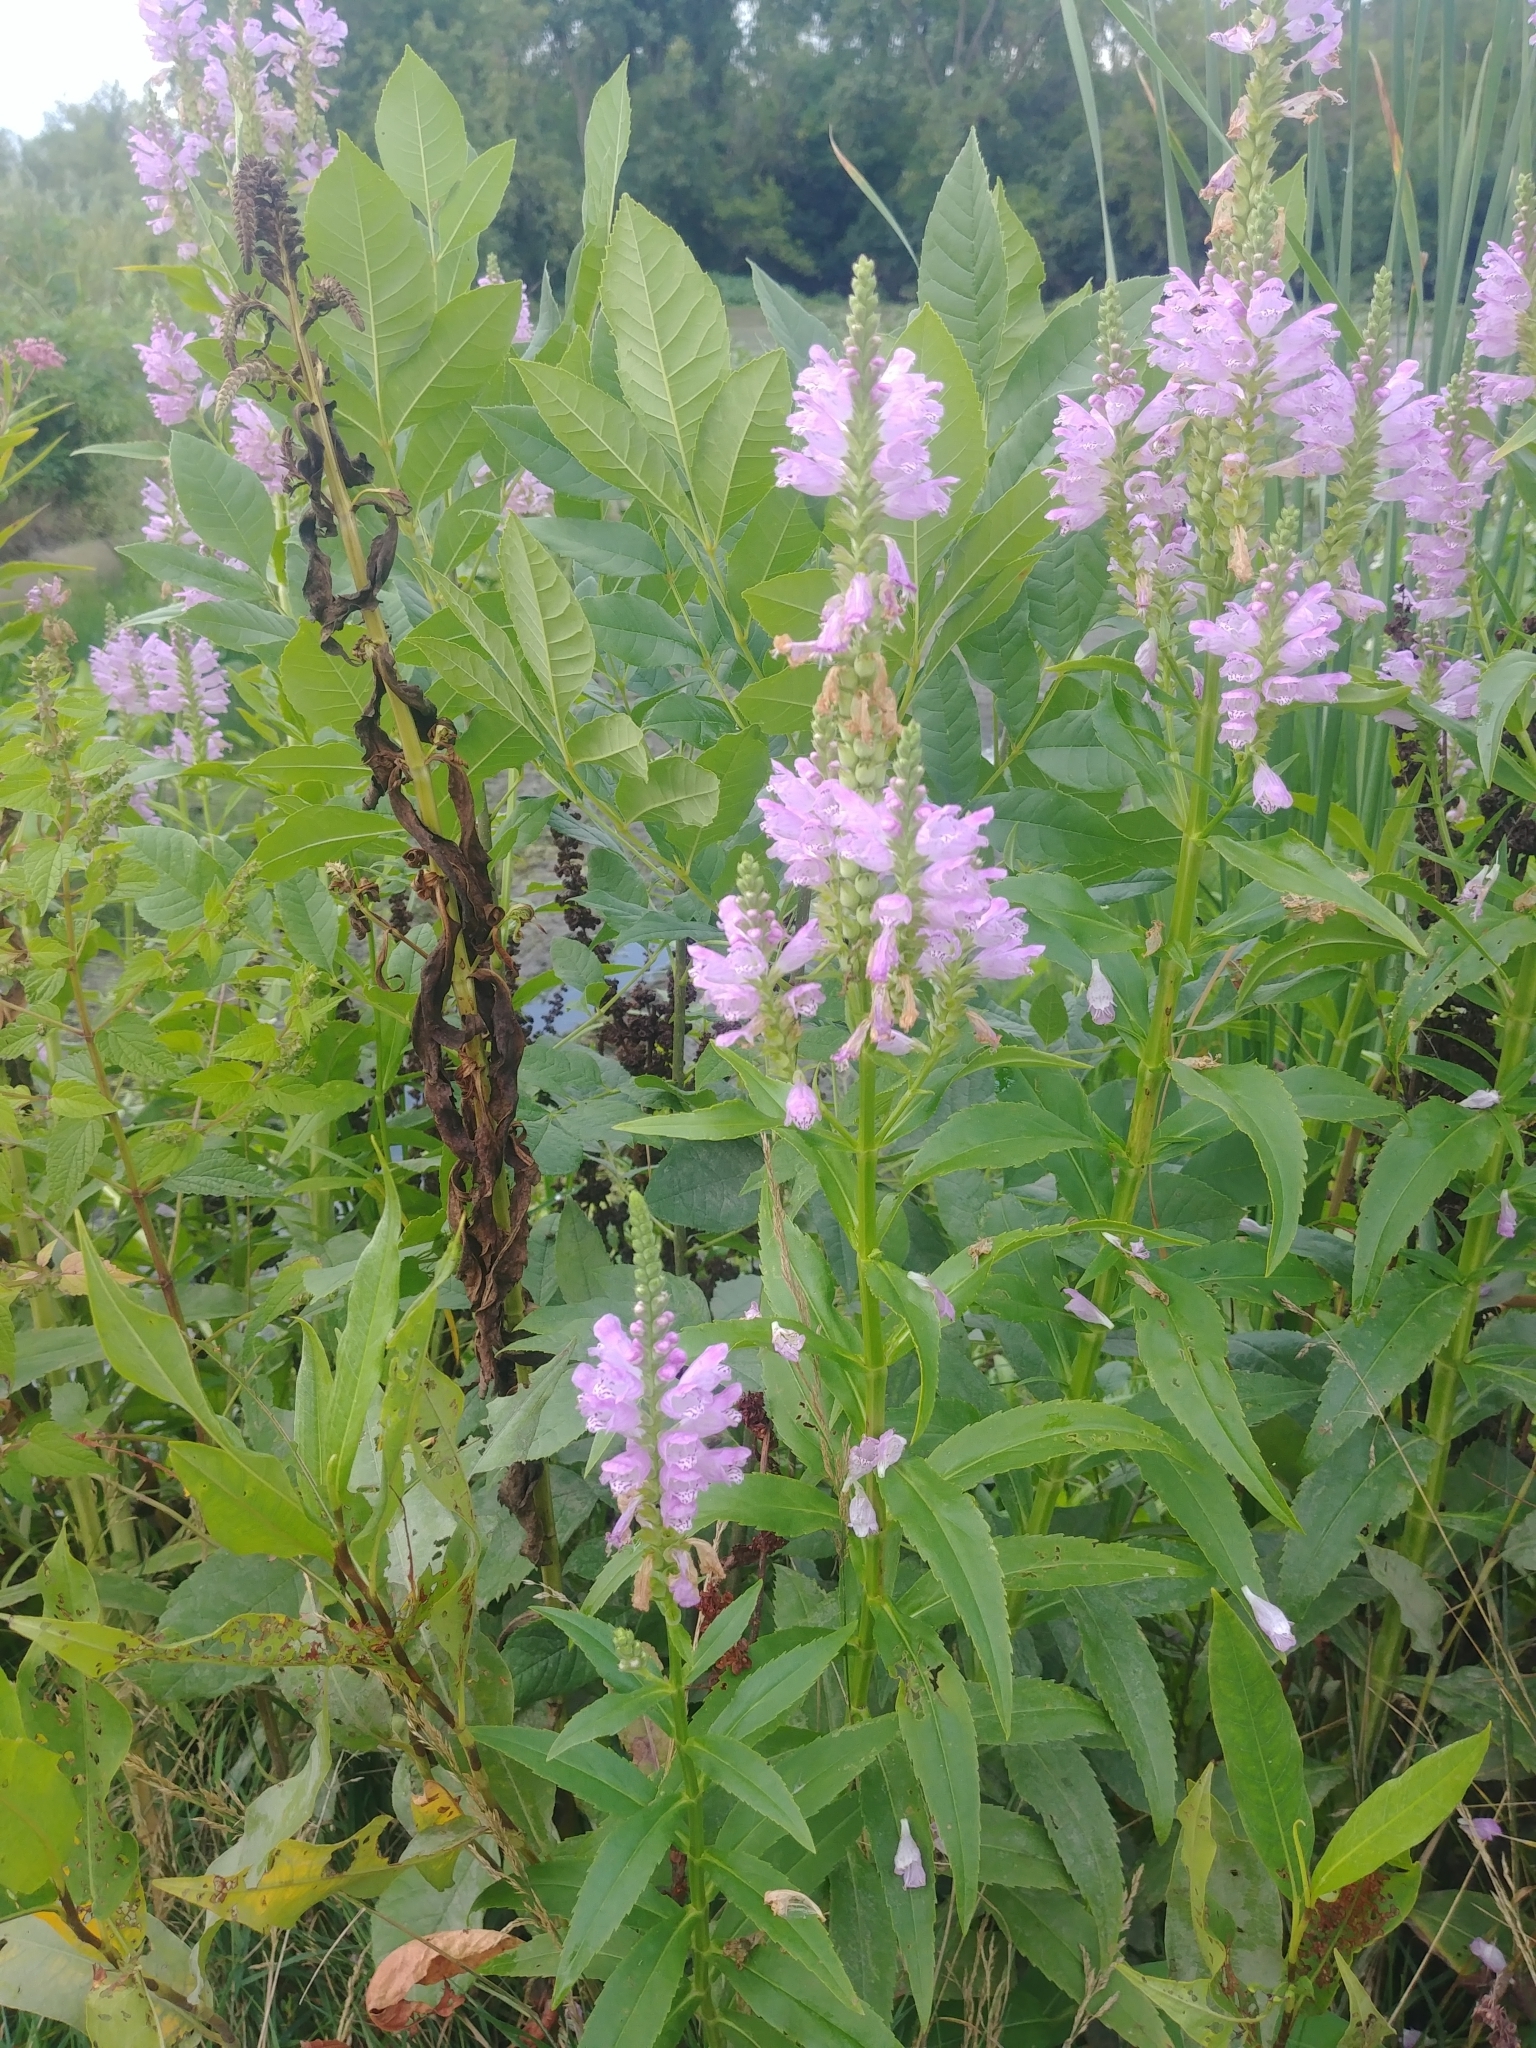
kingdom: Plantae
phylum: Tracheophyta
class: Magnoliopsida
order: Lamiales
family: Lamiaceae
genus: Physostegia
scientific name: Physostegia virginiana
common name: Obedient-plant
